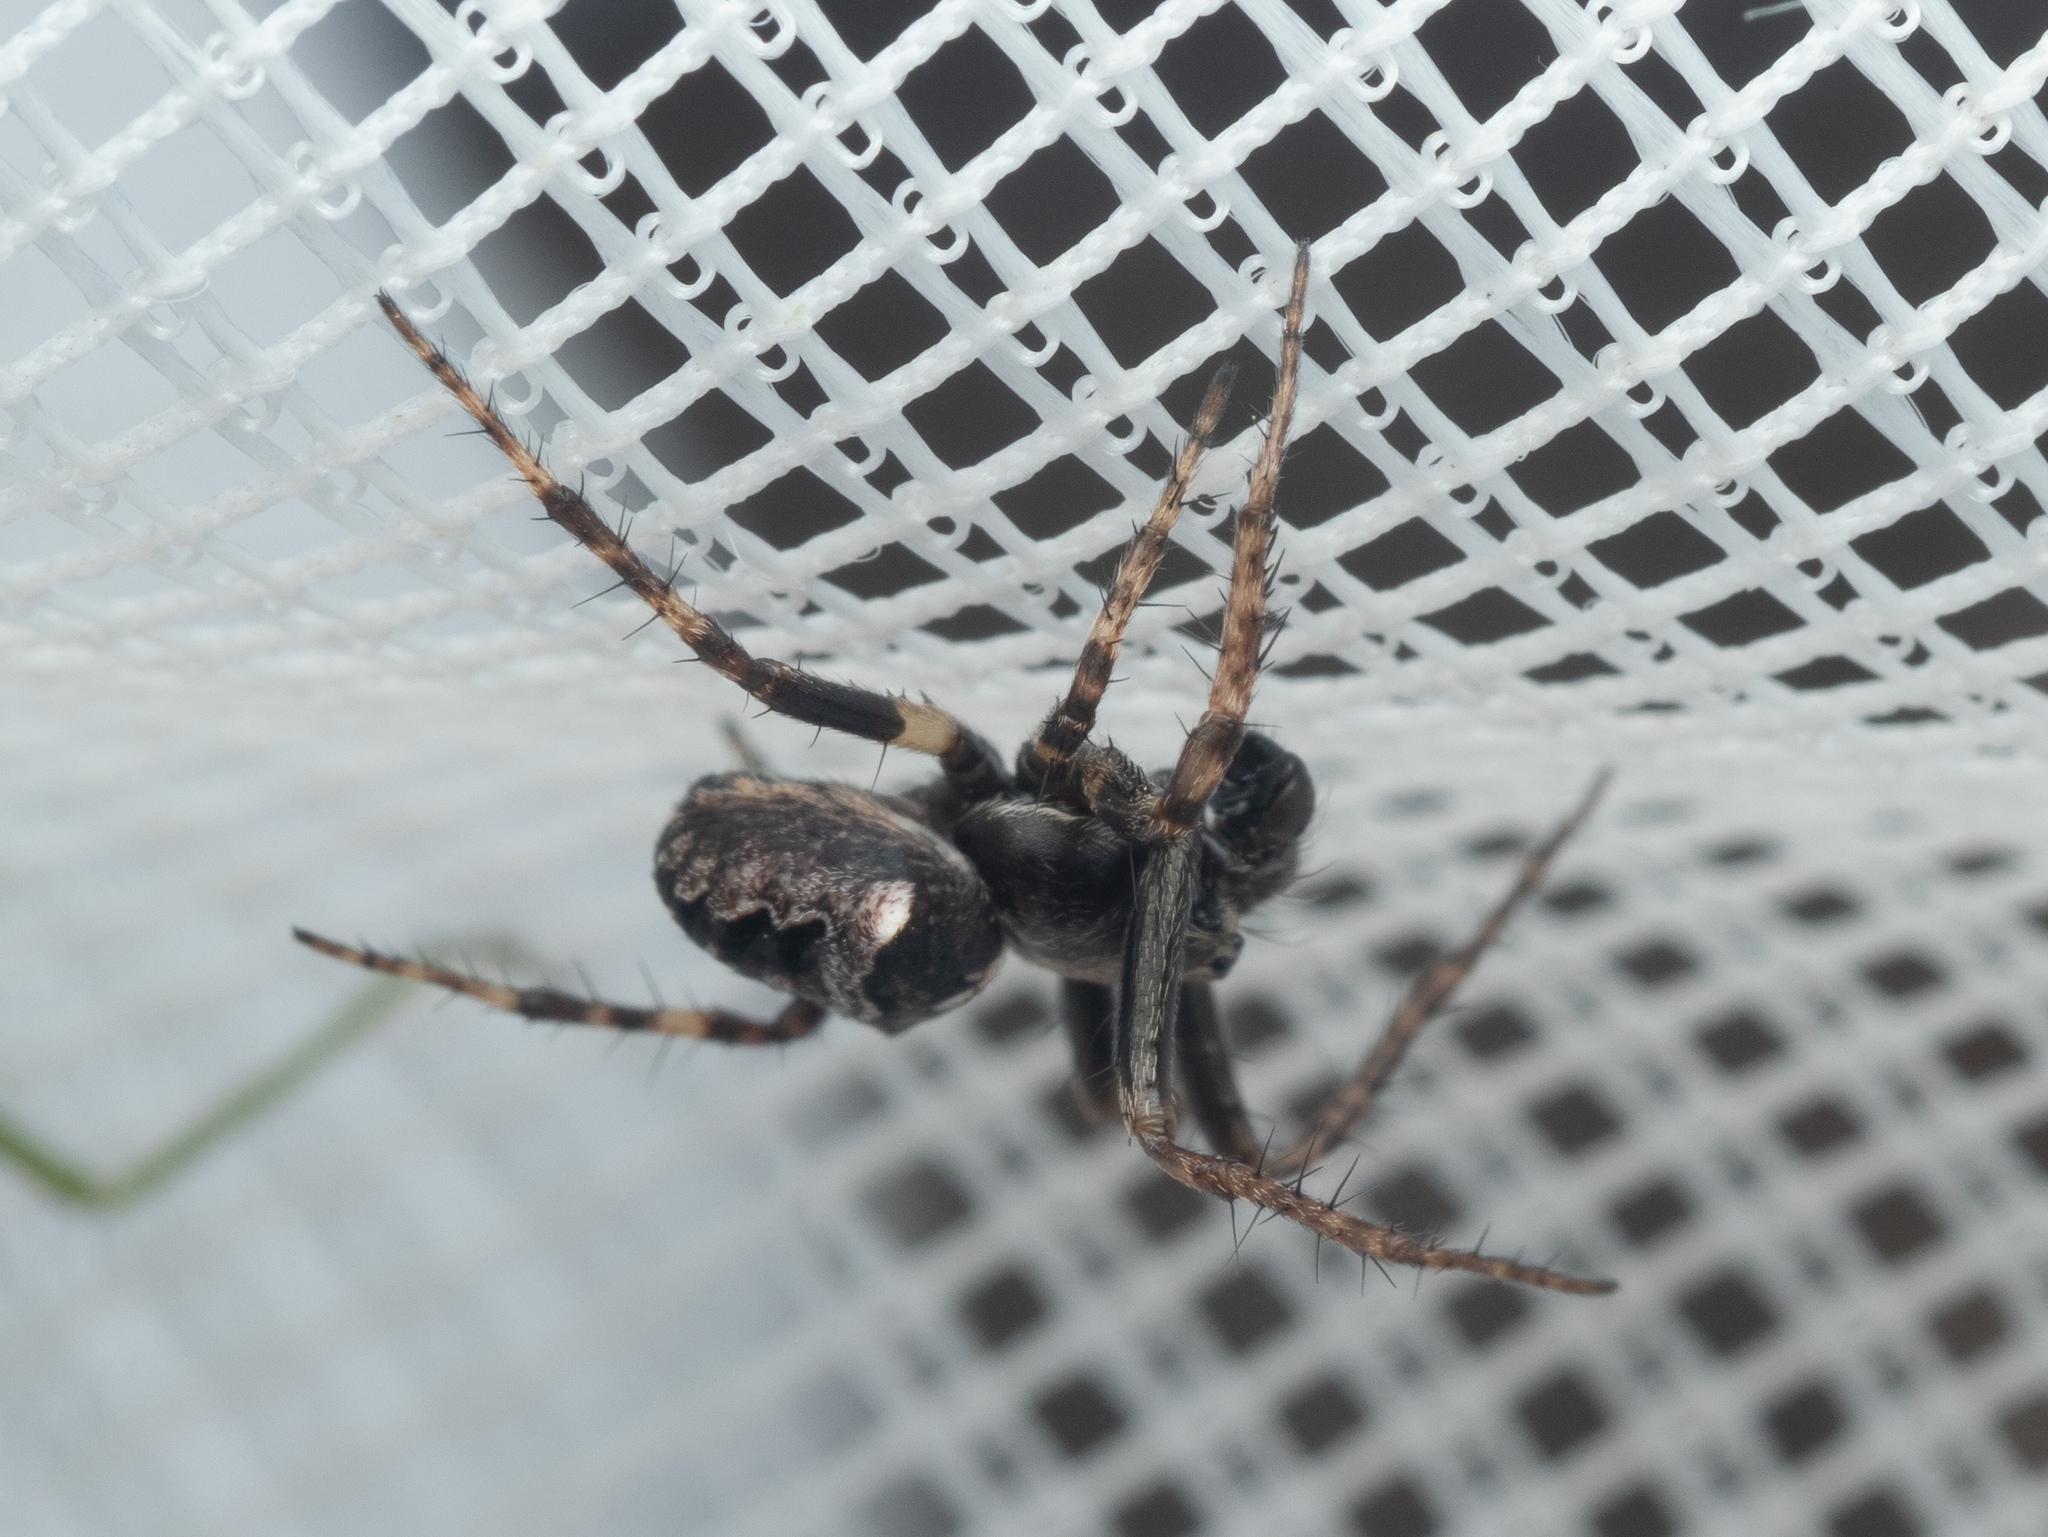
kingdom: Animalia
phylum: Arthropoda
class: Arachnida
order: Araneae
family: Araneidae
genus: Gibbaranea
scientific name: Gibbaranea bituberculata
